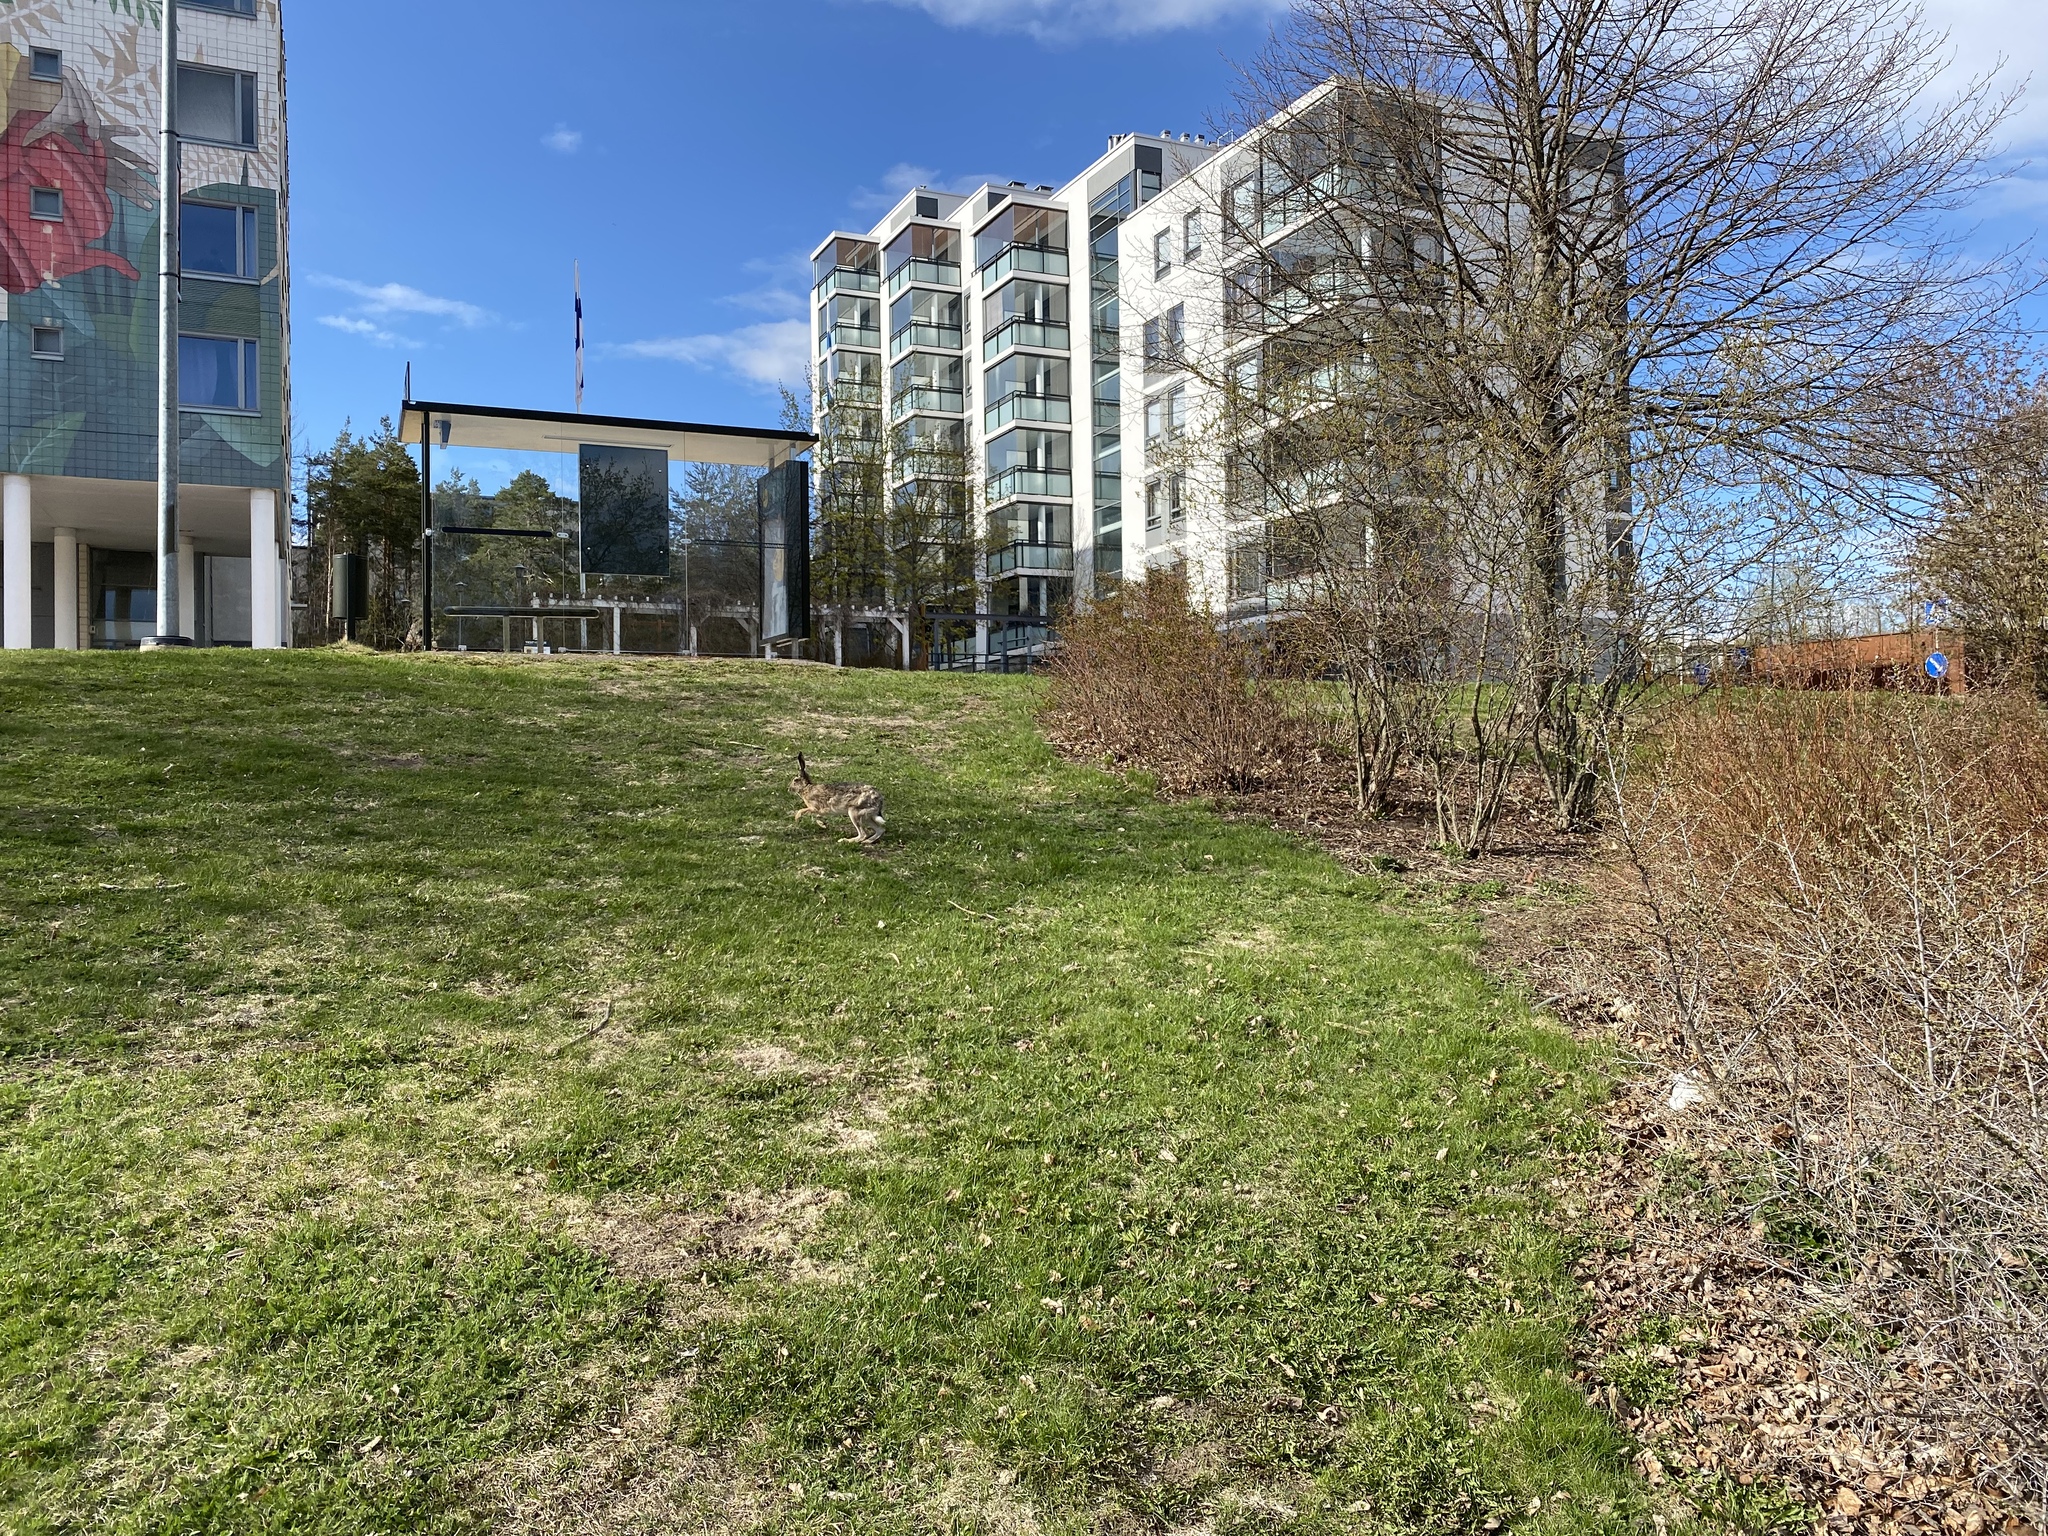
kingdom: Animalia
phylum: Chordata
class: Mammalia
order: Lagomorpha
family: Leporidae
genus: Lepus
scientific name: Lepus europaeus
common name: European hare
